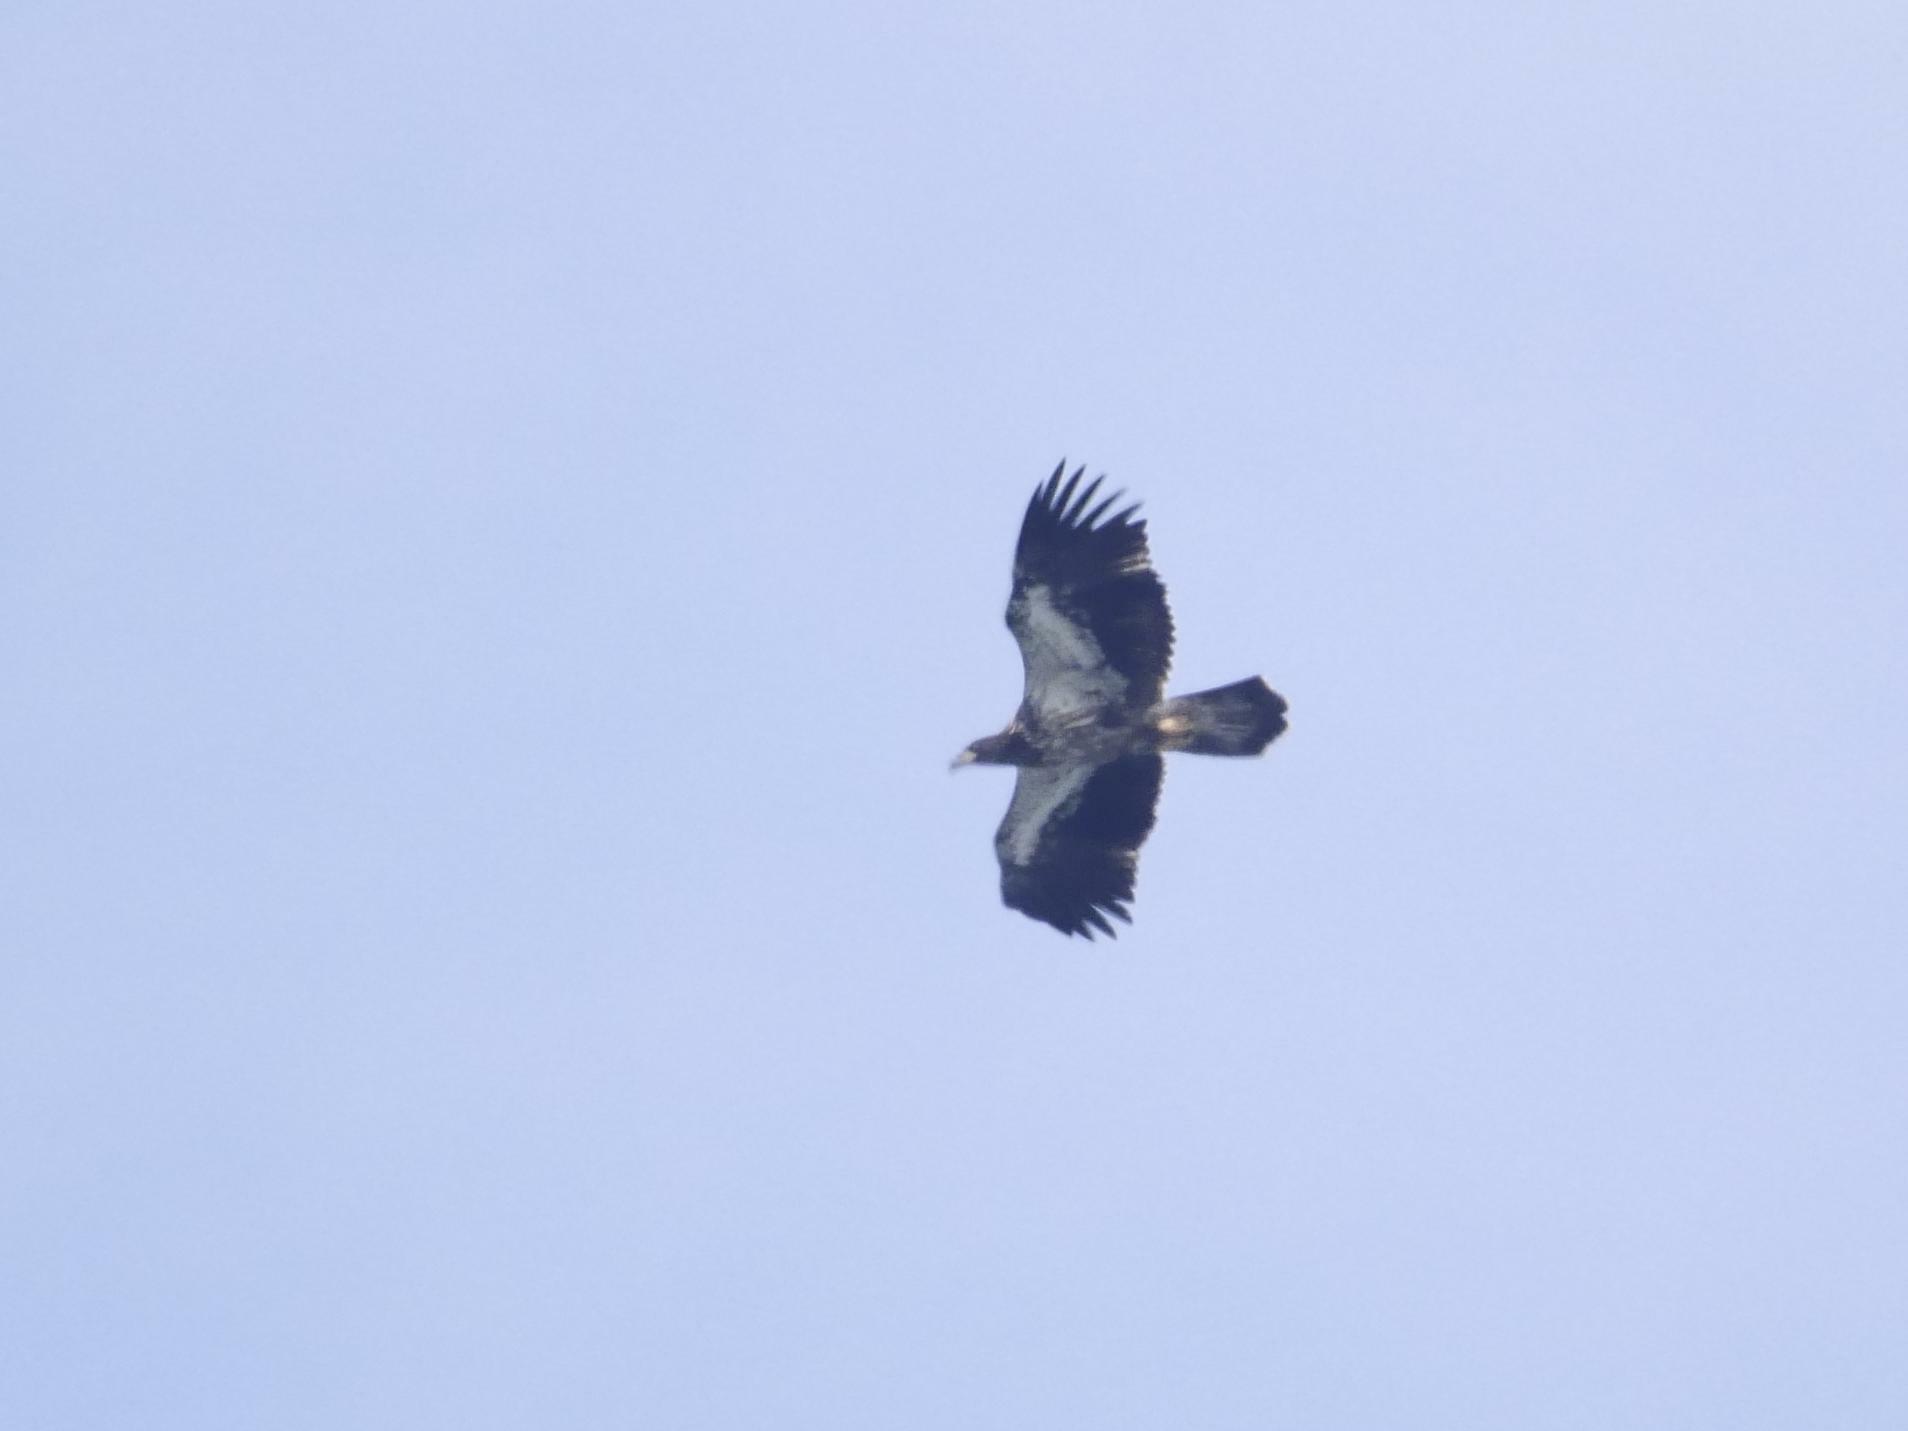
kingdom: Animalia
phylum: Chordata
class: Aves
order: Accipitriformes
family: Accipitridae
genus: Haliaeetus
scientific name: Haliaeetus leucocephalus
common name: Bald eagle
